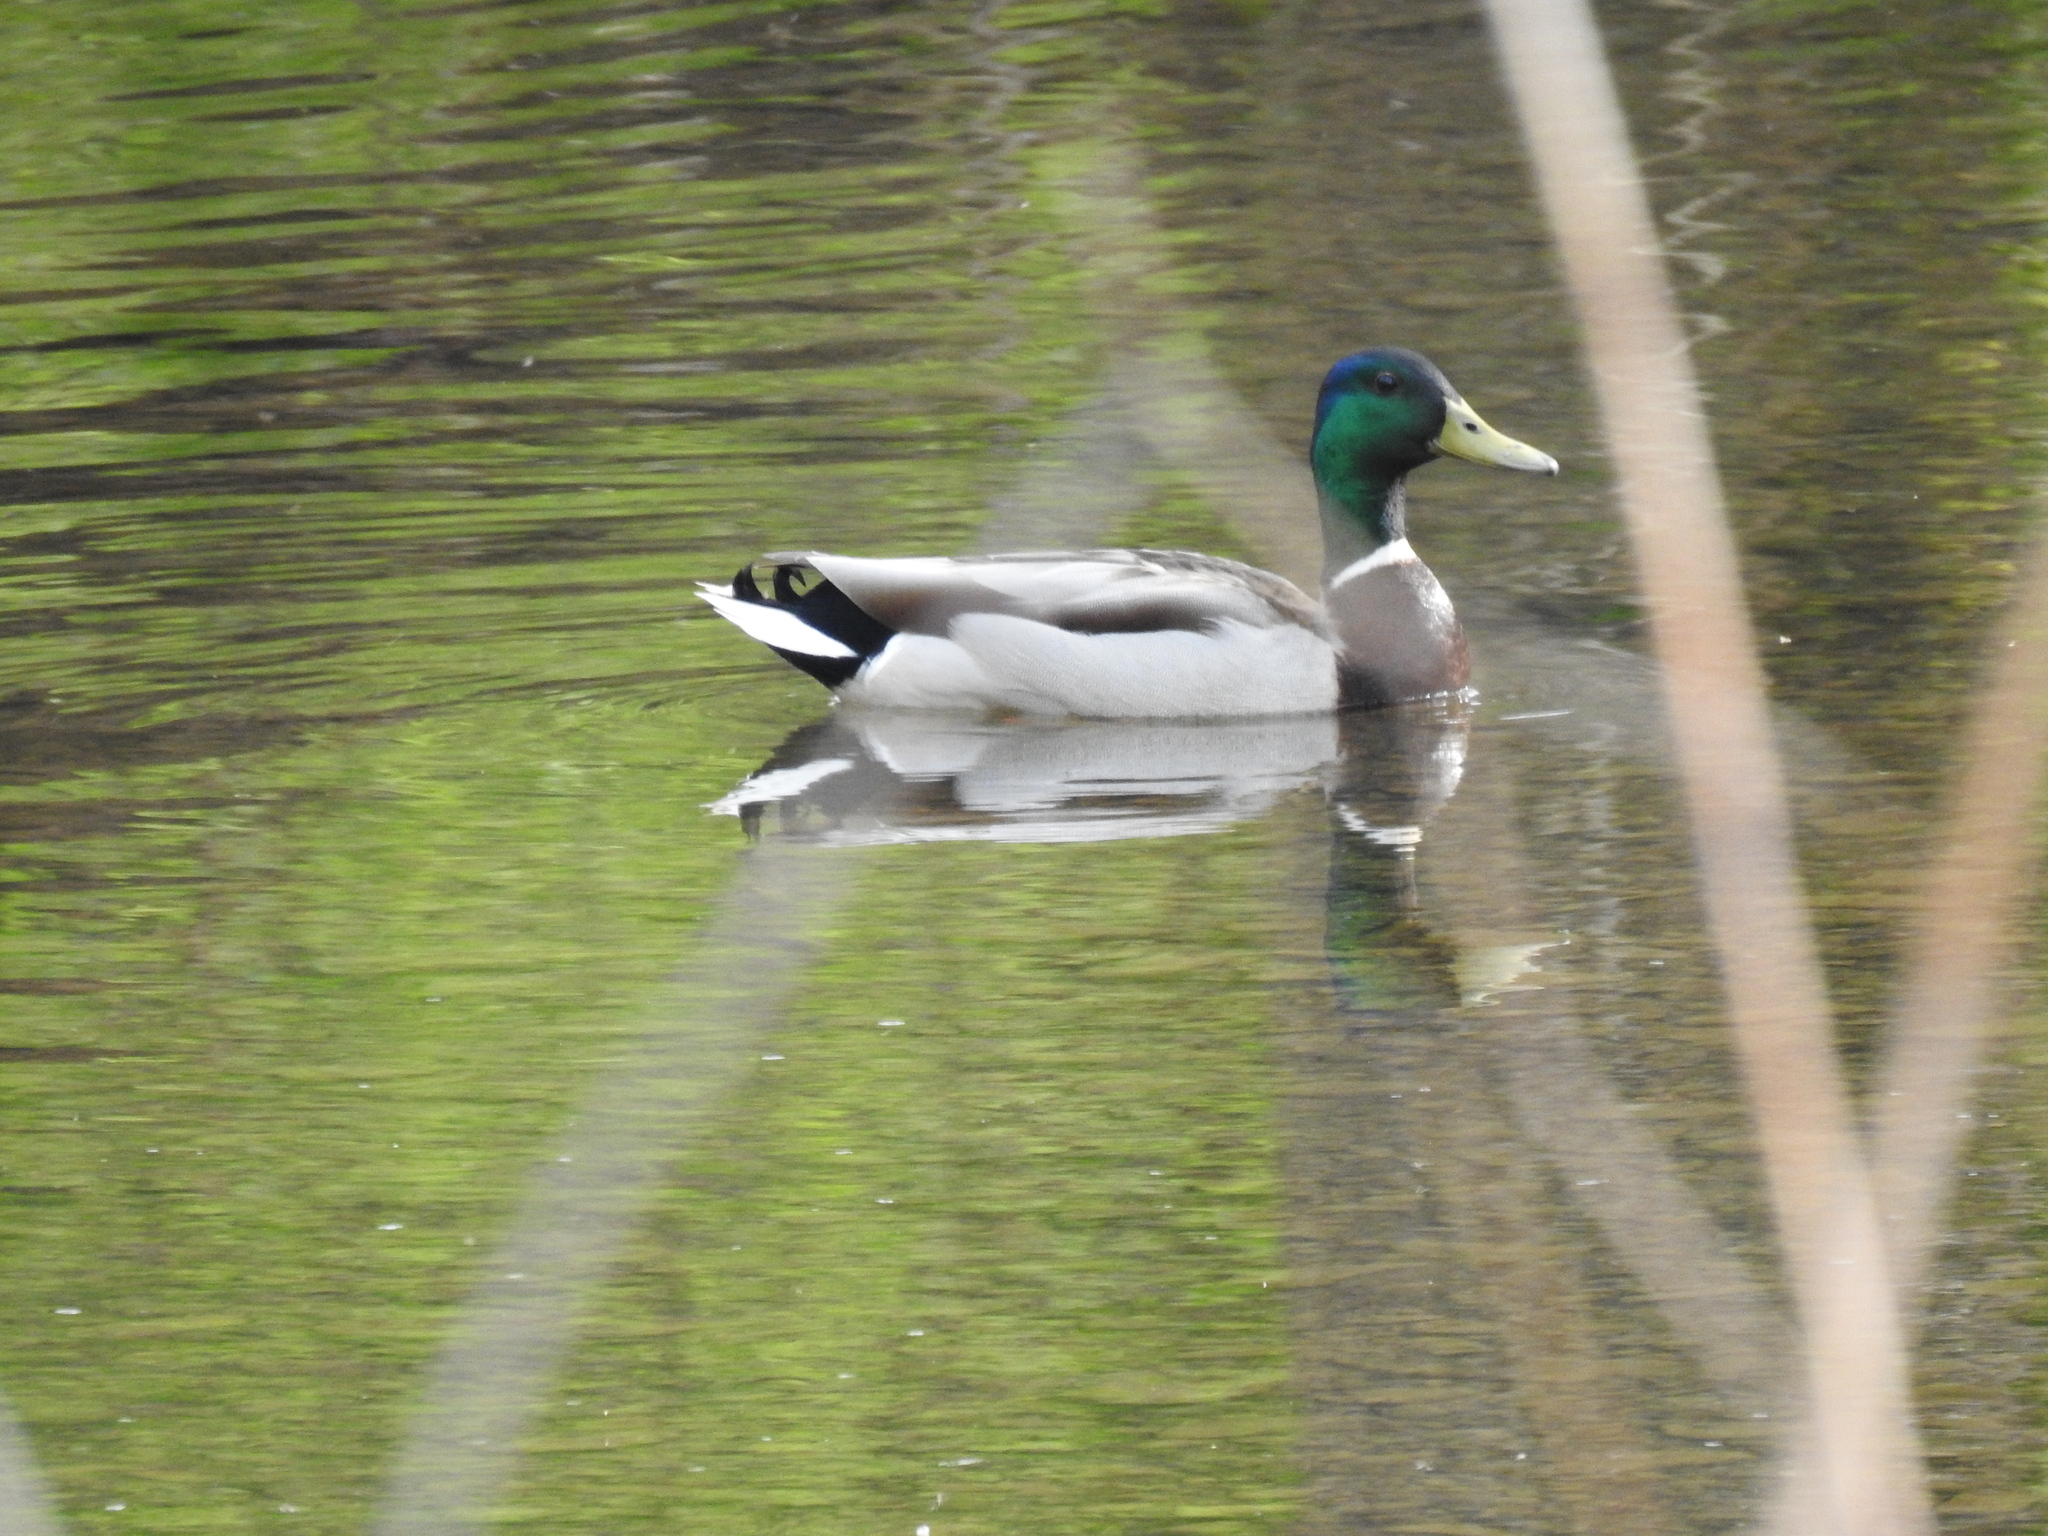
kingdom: Animalia
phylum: Chordata
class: Aves
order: Anseriformes
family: Anatidae
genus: Anas
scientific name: Anas platyrhynchos
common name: Mallard
